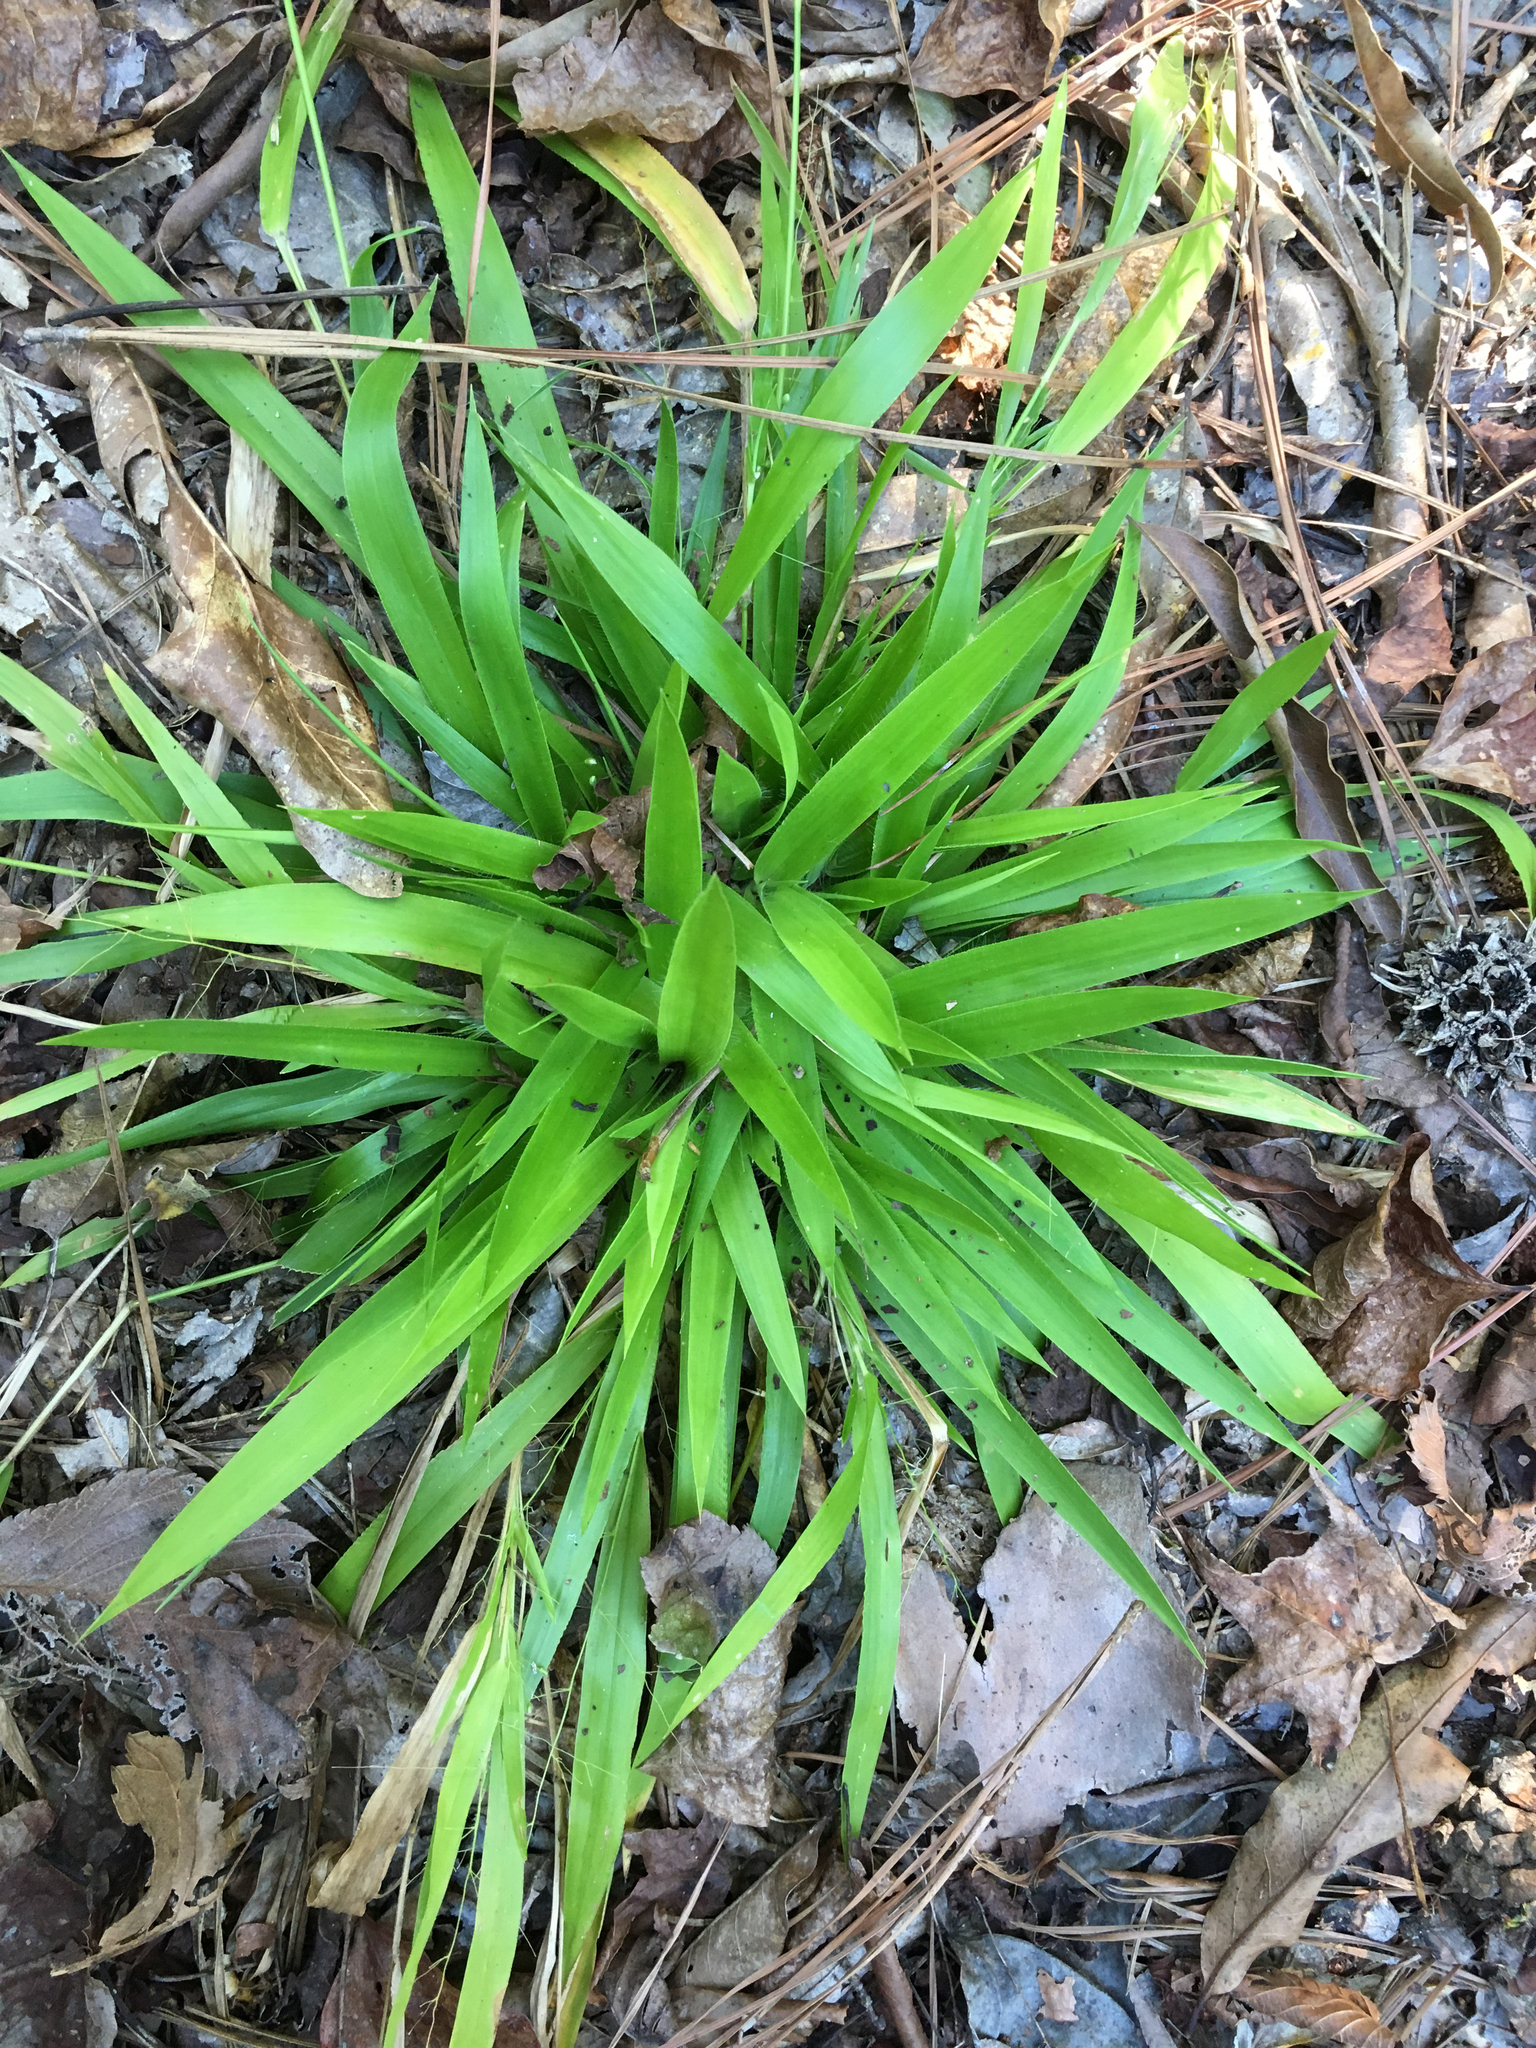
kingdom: Plantae
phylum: Tracheophyta
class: Liliopsida
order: Poales
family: Poaceae
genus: Dichanthelium
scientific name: Dichanthelium laxiflorum
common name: Soft-tuft panic grass
